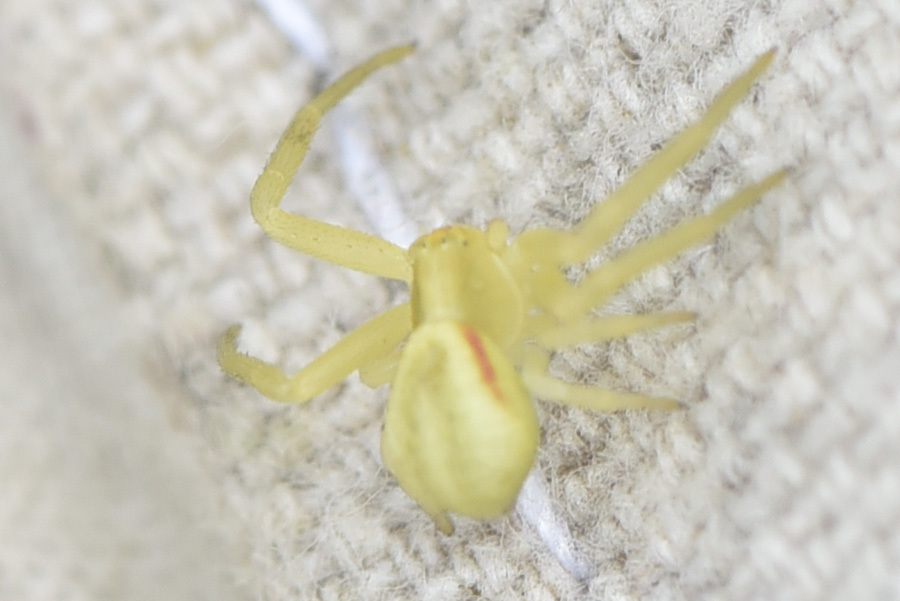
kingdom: Animalia
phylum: Arthropoda
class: Arachnida
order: Araneae
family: Thomisidae
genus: Misumena
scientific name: Misumena vatia
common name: Goldenrod crab spider
